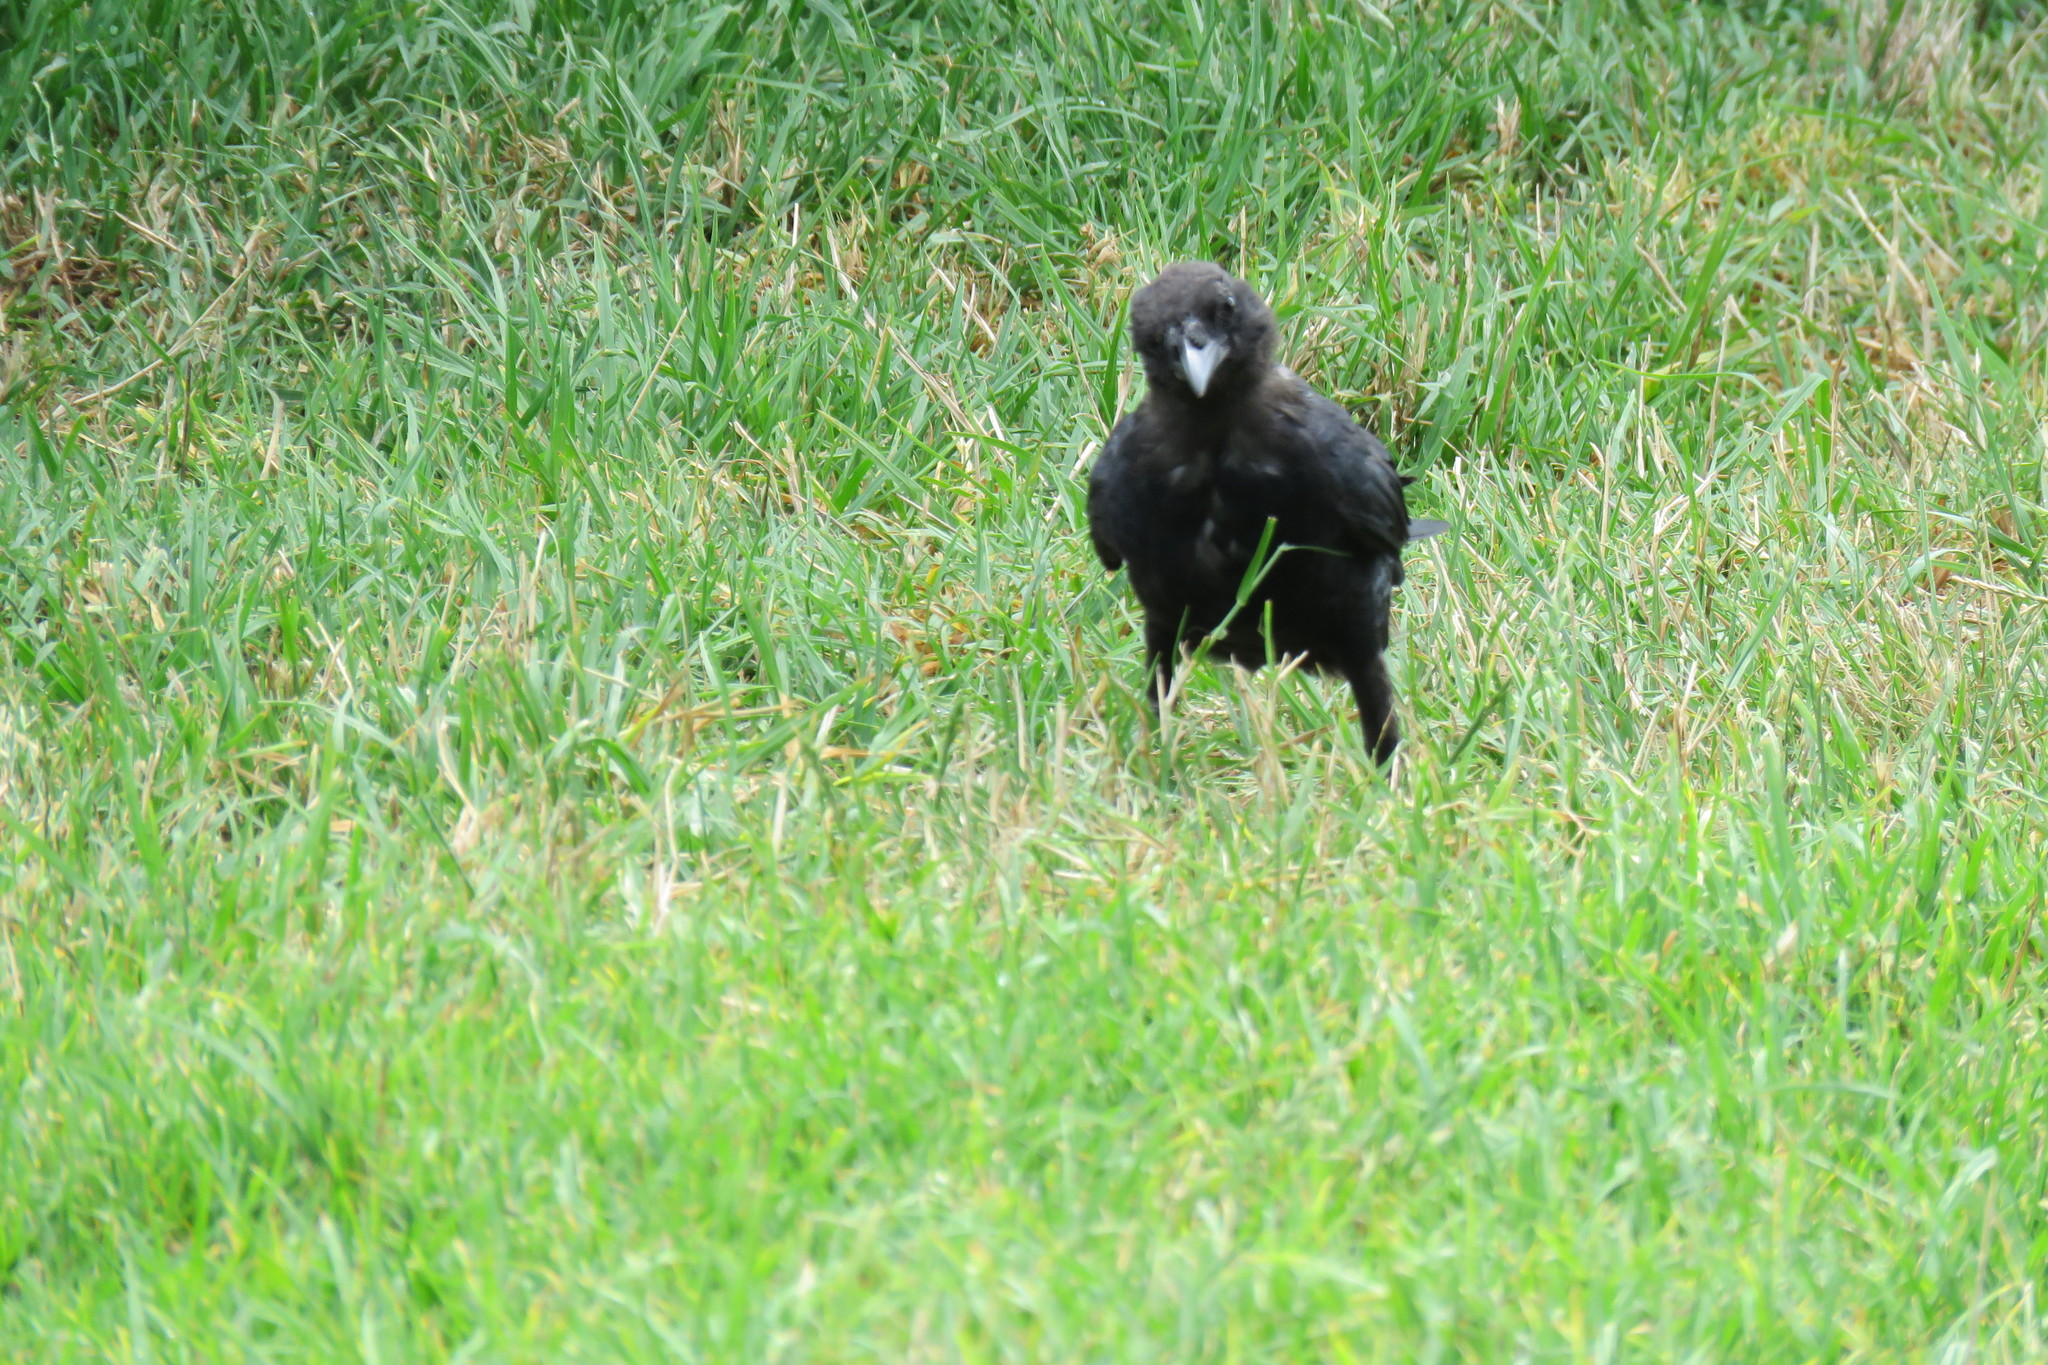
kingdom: Animalia
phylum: Chordata
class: Aves
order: Passeriformes
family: Corvidae
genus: Corvus
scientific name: Corvus brachyrhynchos
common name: American crow
